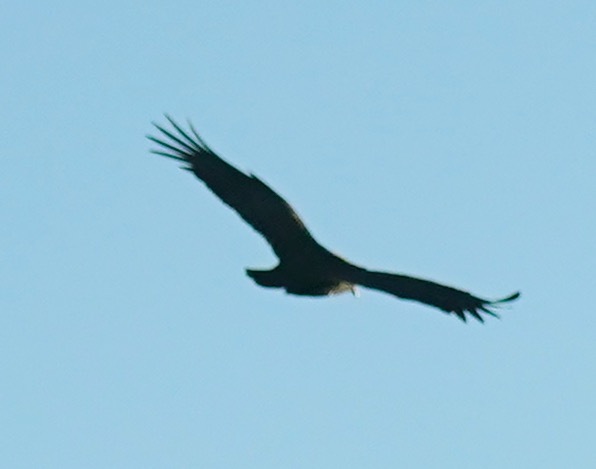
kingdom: Animalia
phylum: Chordata
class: Aves
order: Accipitriformes
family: Cathartidae
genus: Cathartes
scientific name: Cathartes aura
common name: Turkey vulture
